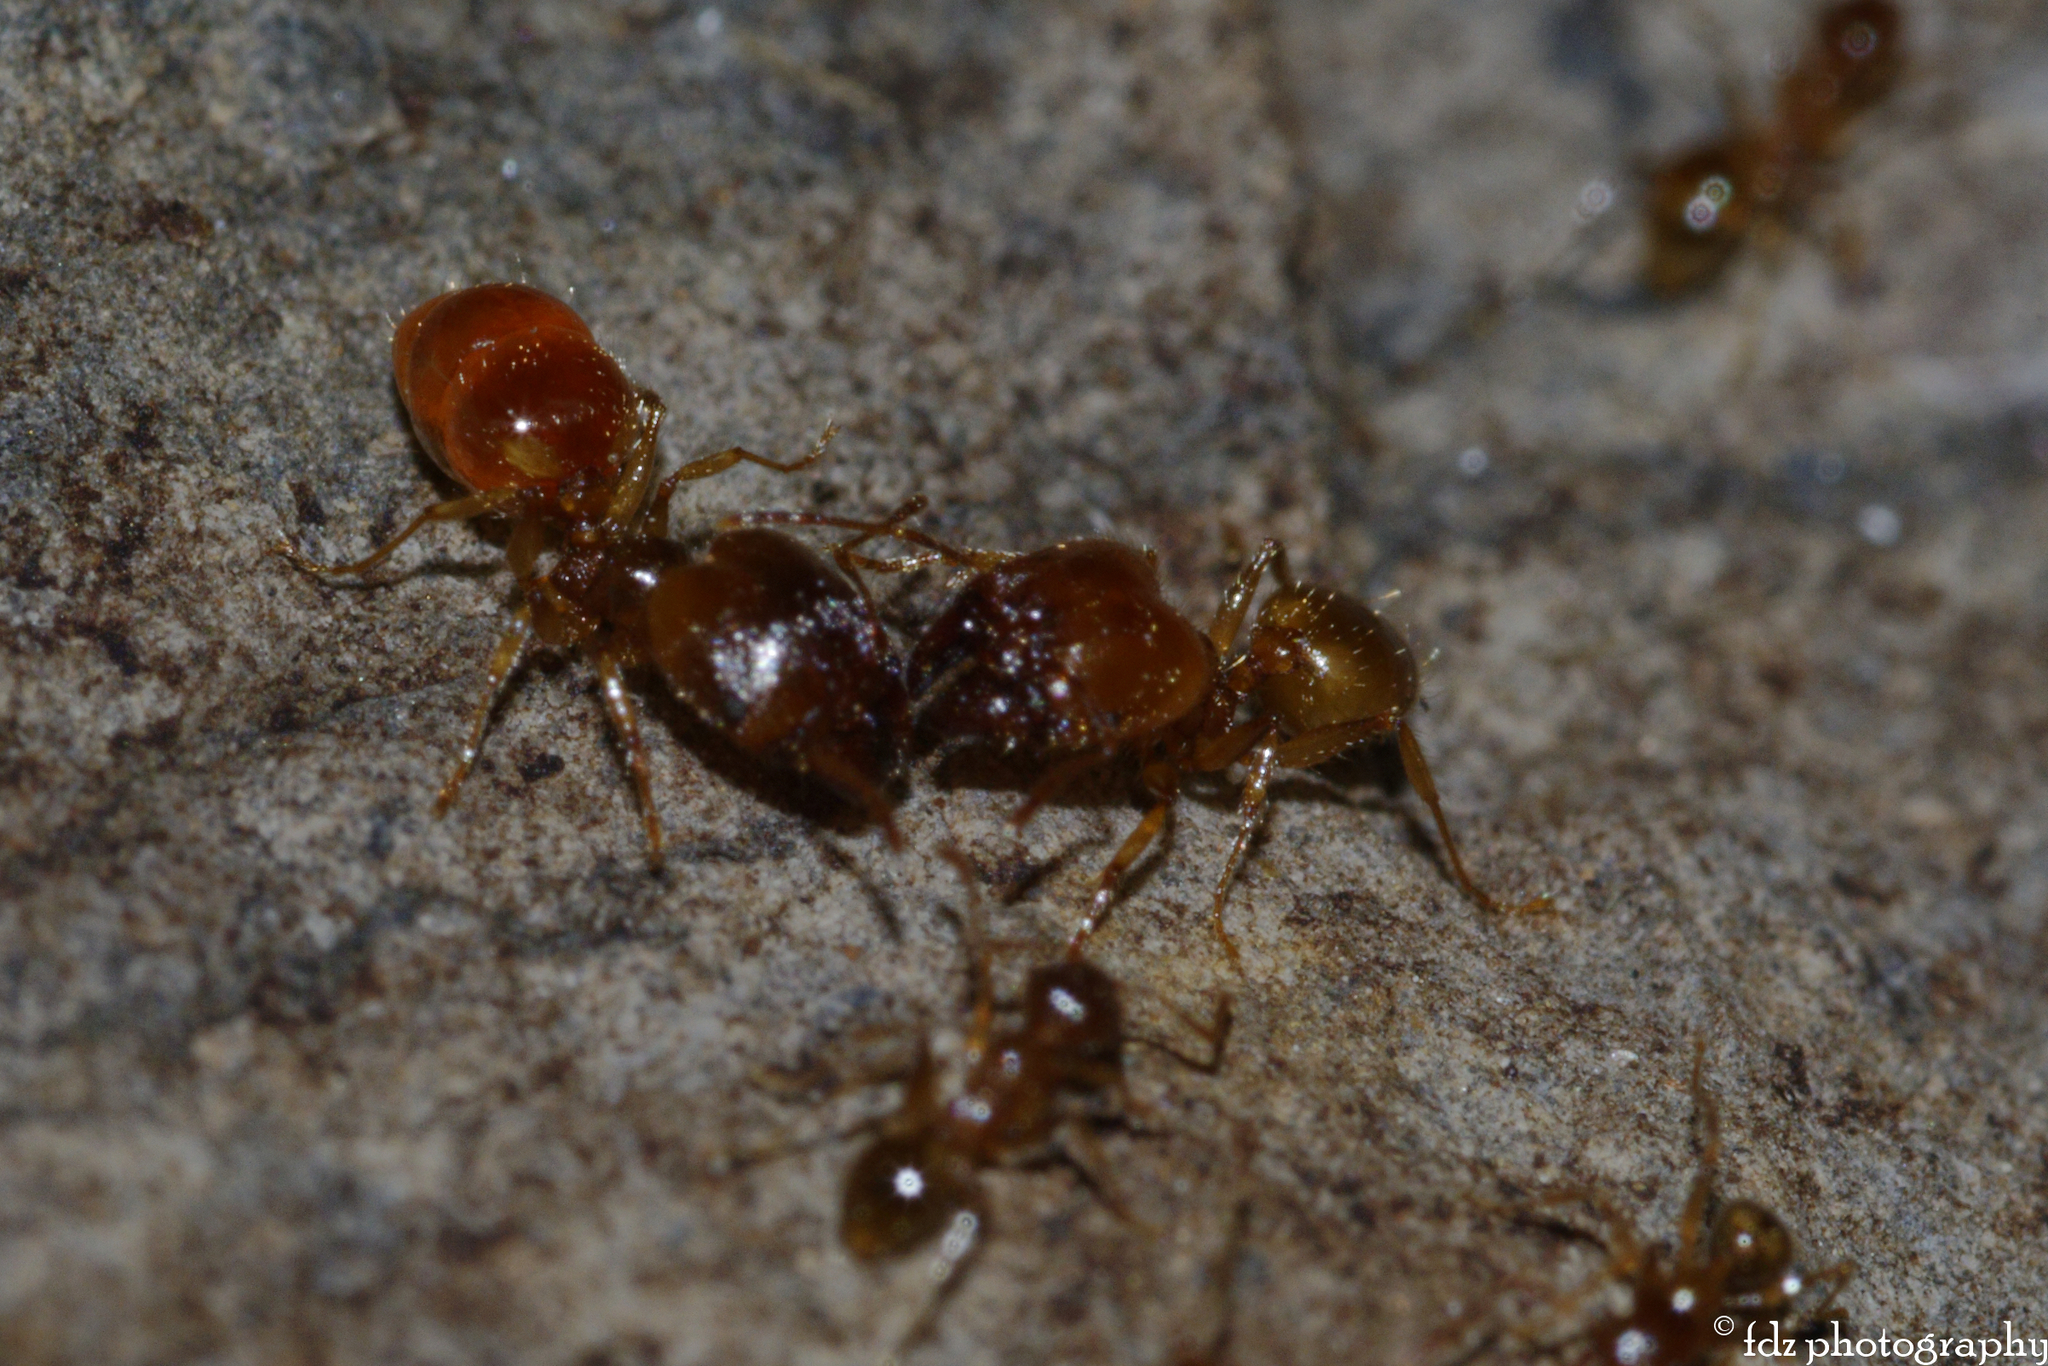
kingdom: Animalia
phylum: Arthropoda
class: Insecta
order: Hymenoptera
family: Formicidae
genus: Pheidole
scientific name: Pheidole pallidula
